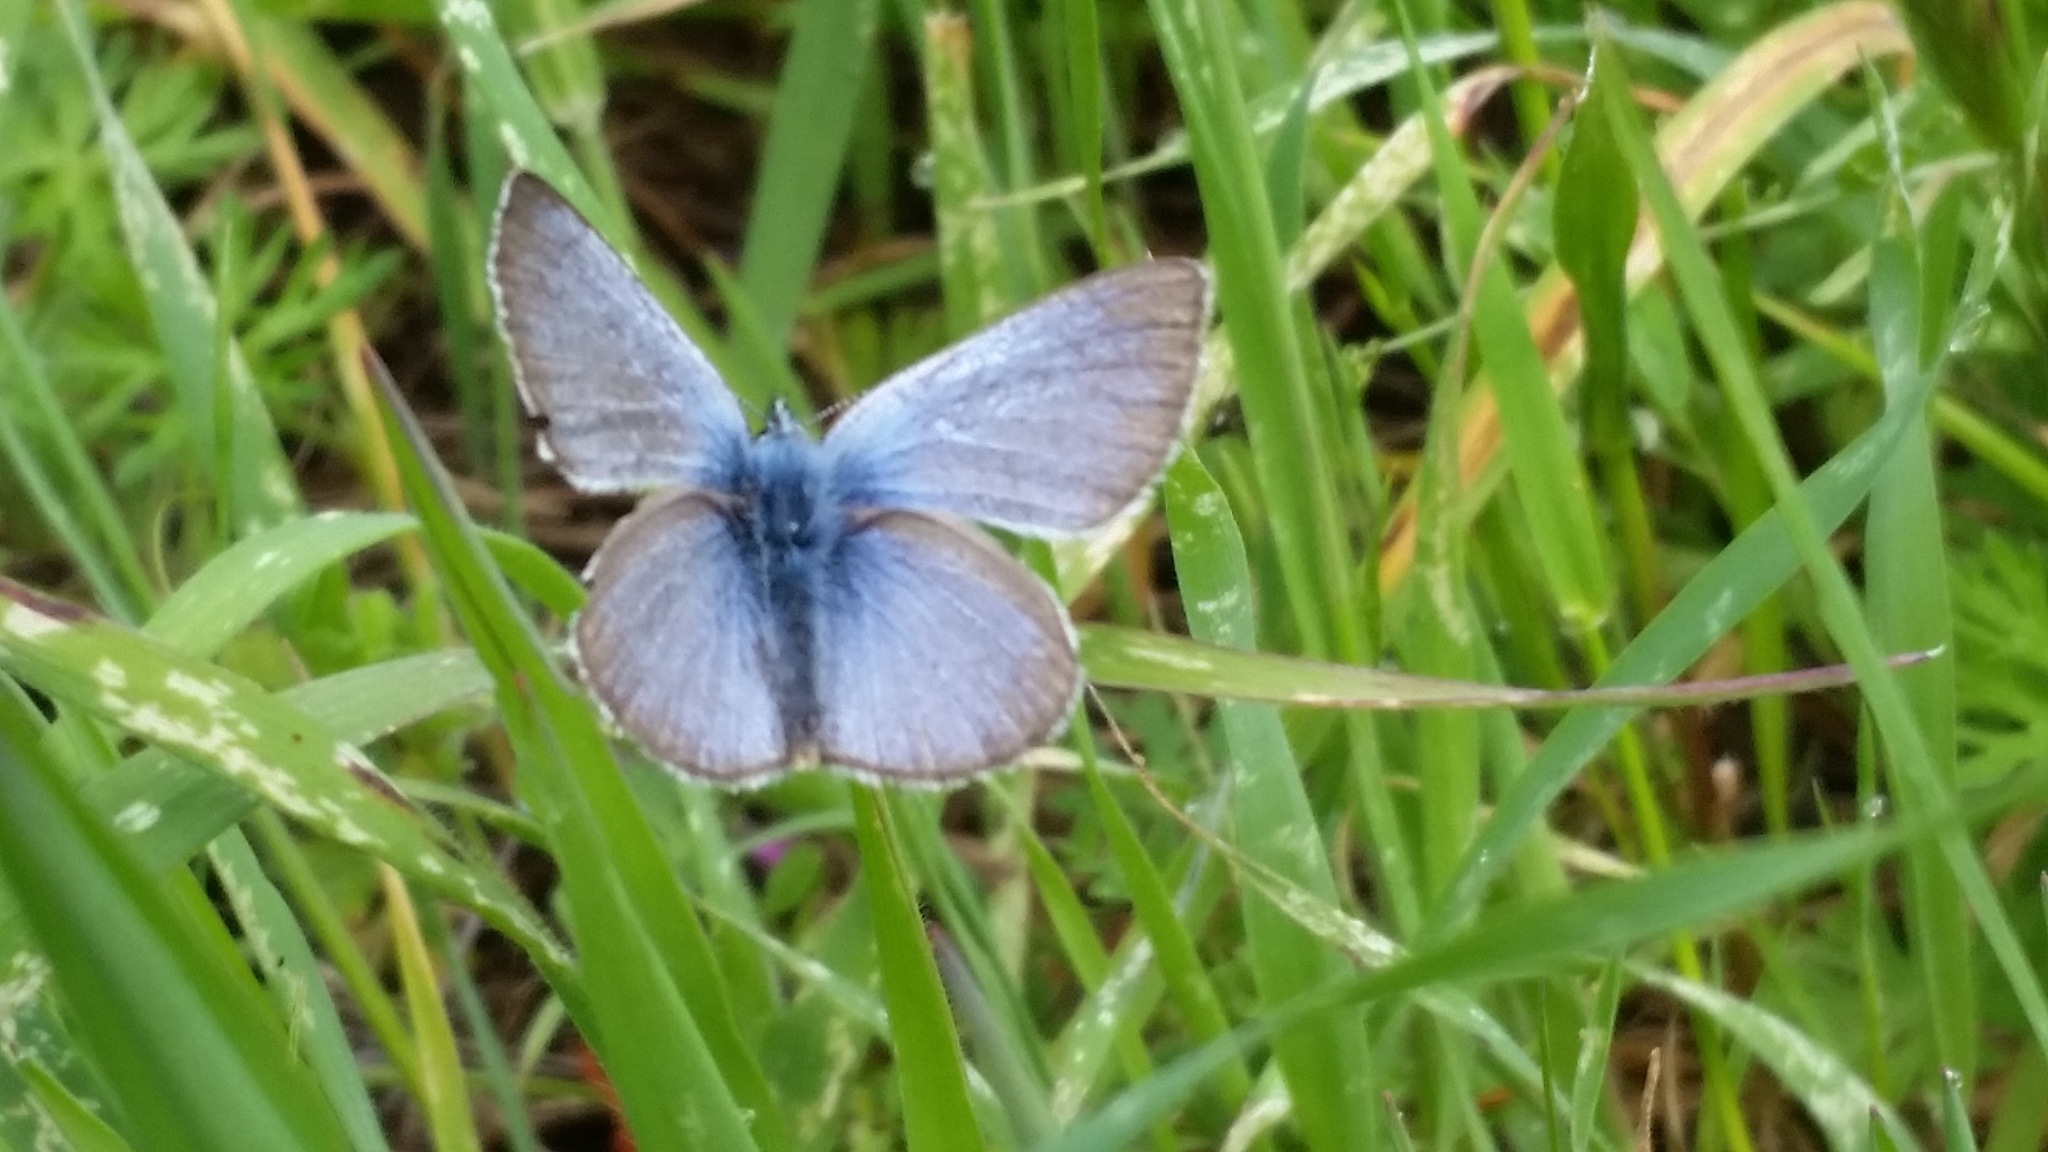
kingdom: Animalia
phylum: Arthropoda
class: Insecta
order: Lepidoptera
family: Lycaenidae
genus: Glaucopsyche
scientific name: Glaucopsyche lygdamus
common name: Silvery blue
